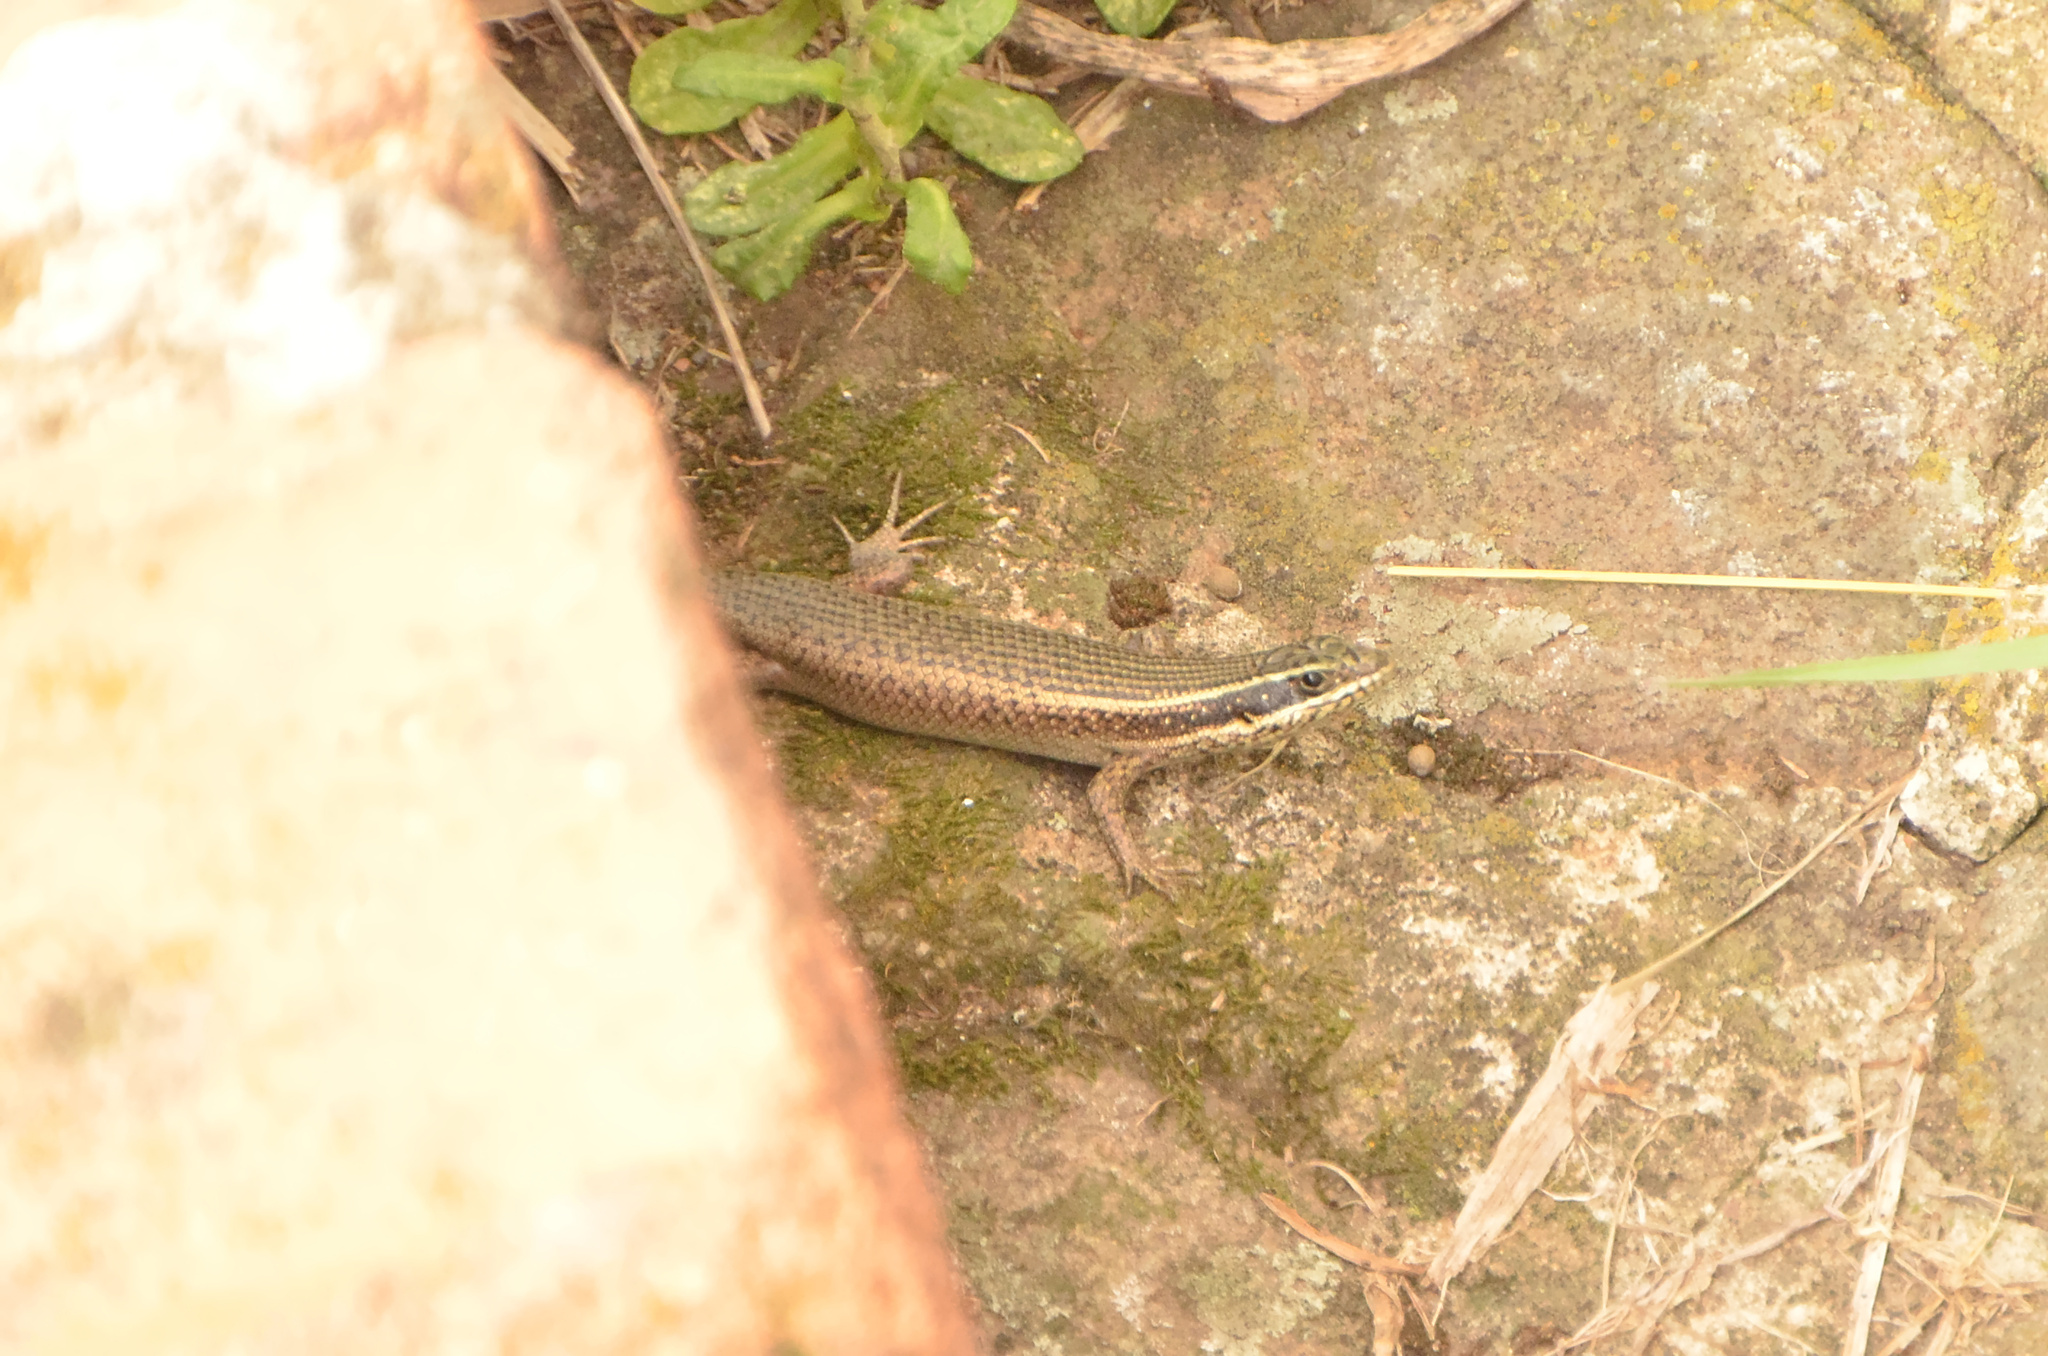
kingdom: Animalia
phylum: Chordata
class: Squamata
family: Scincidae
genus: Trachylepis
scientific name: Trachylepis punctatissima
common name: Montane speckled skink
